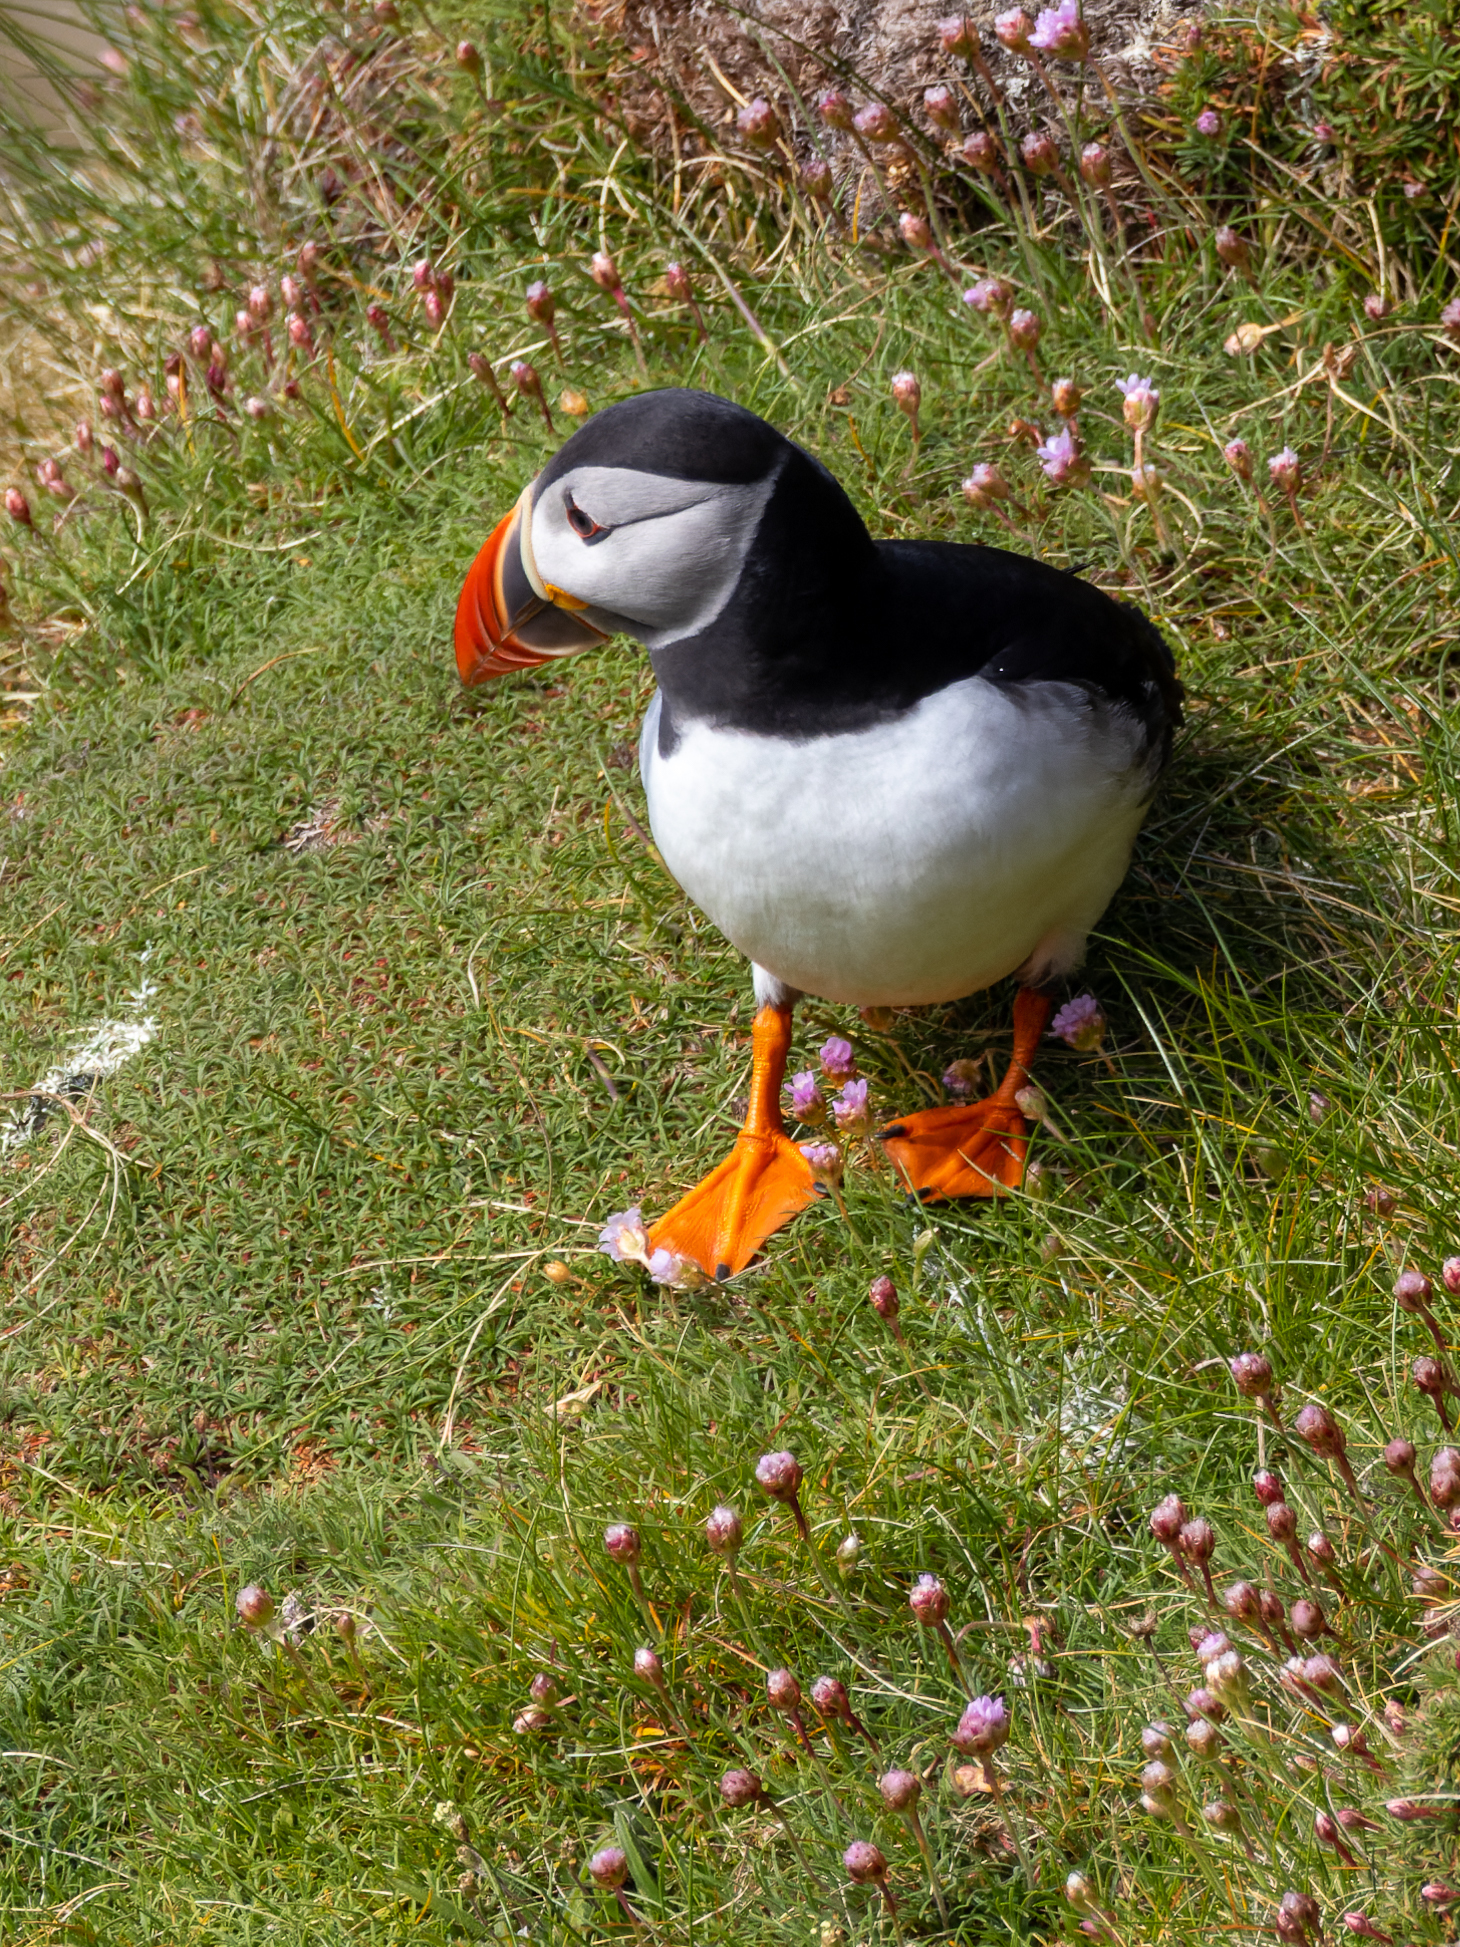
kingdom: Animalia
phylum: Chordata
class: Aves
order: Charadriiformes
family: Alcidae
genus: Fratercula
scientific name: Fratercula arctica
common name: Atlantic puffin
